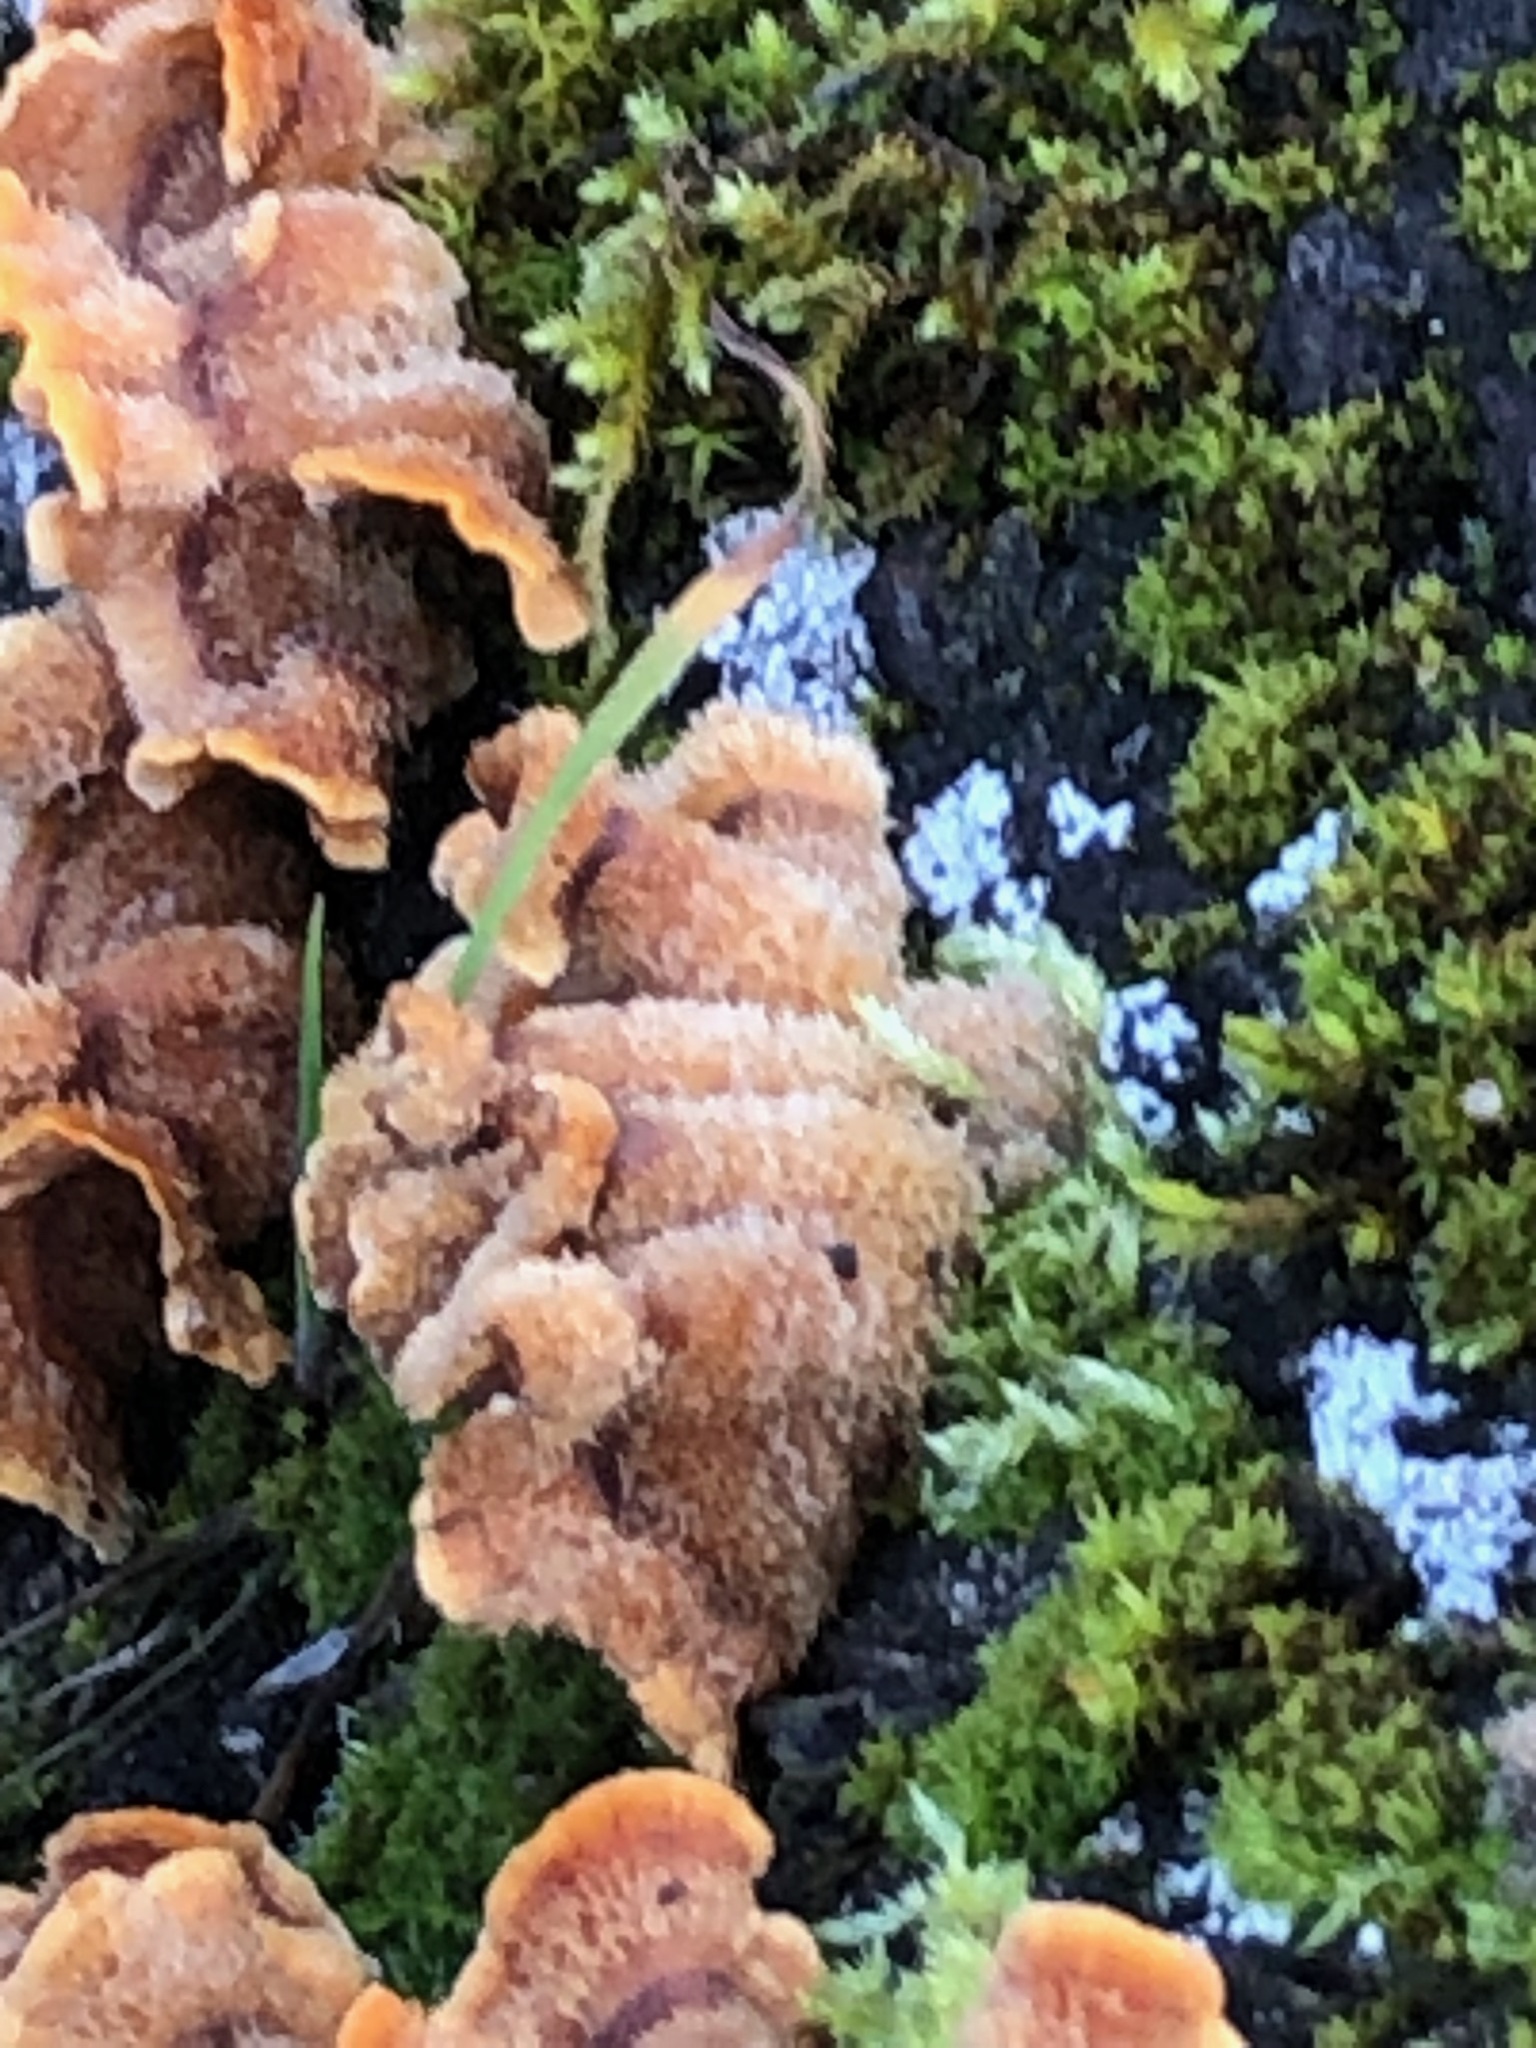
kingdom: Fungi
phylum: Basidiomycota
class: Agaricomycetes
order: Russulales
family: Stereaceae
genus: Stereum
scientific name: Stereum hirsutum
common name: Hairy curtain crust
